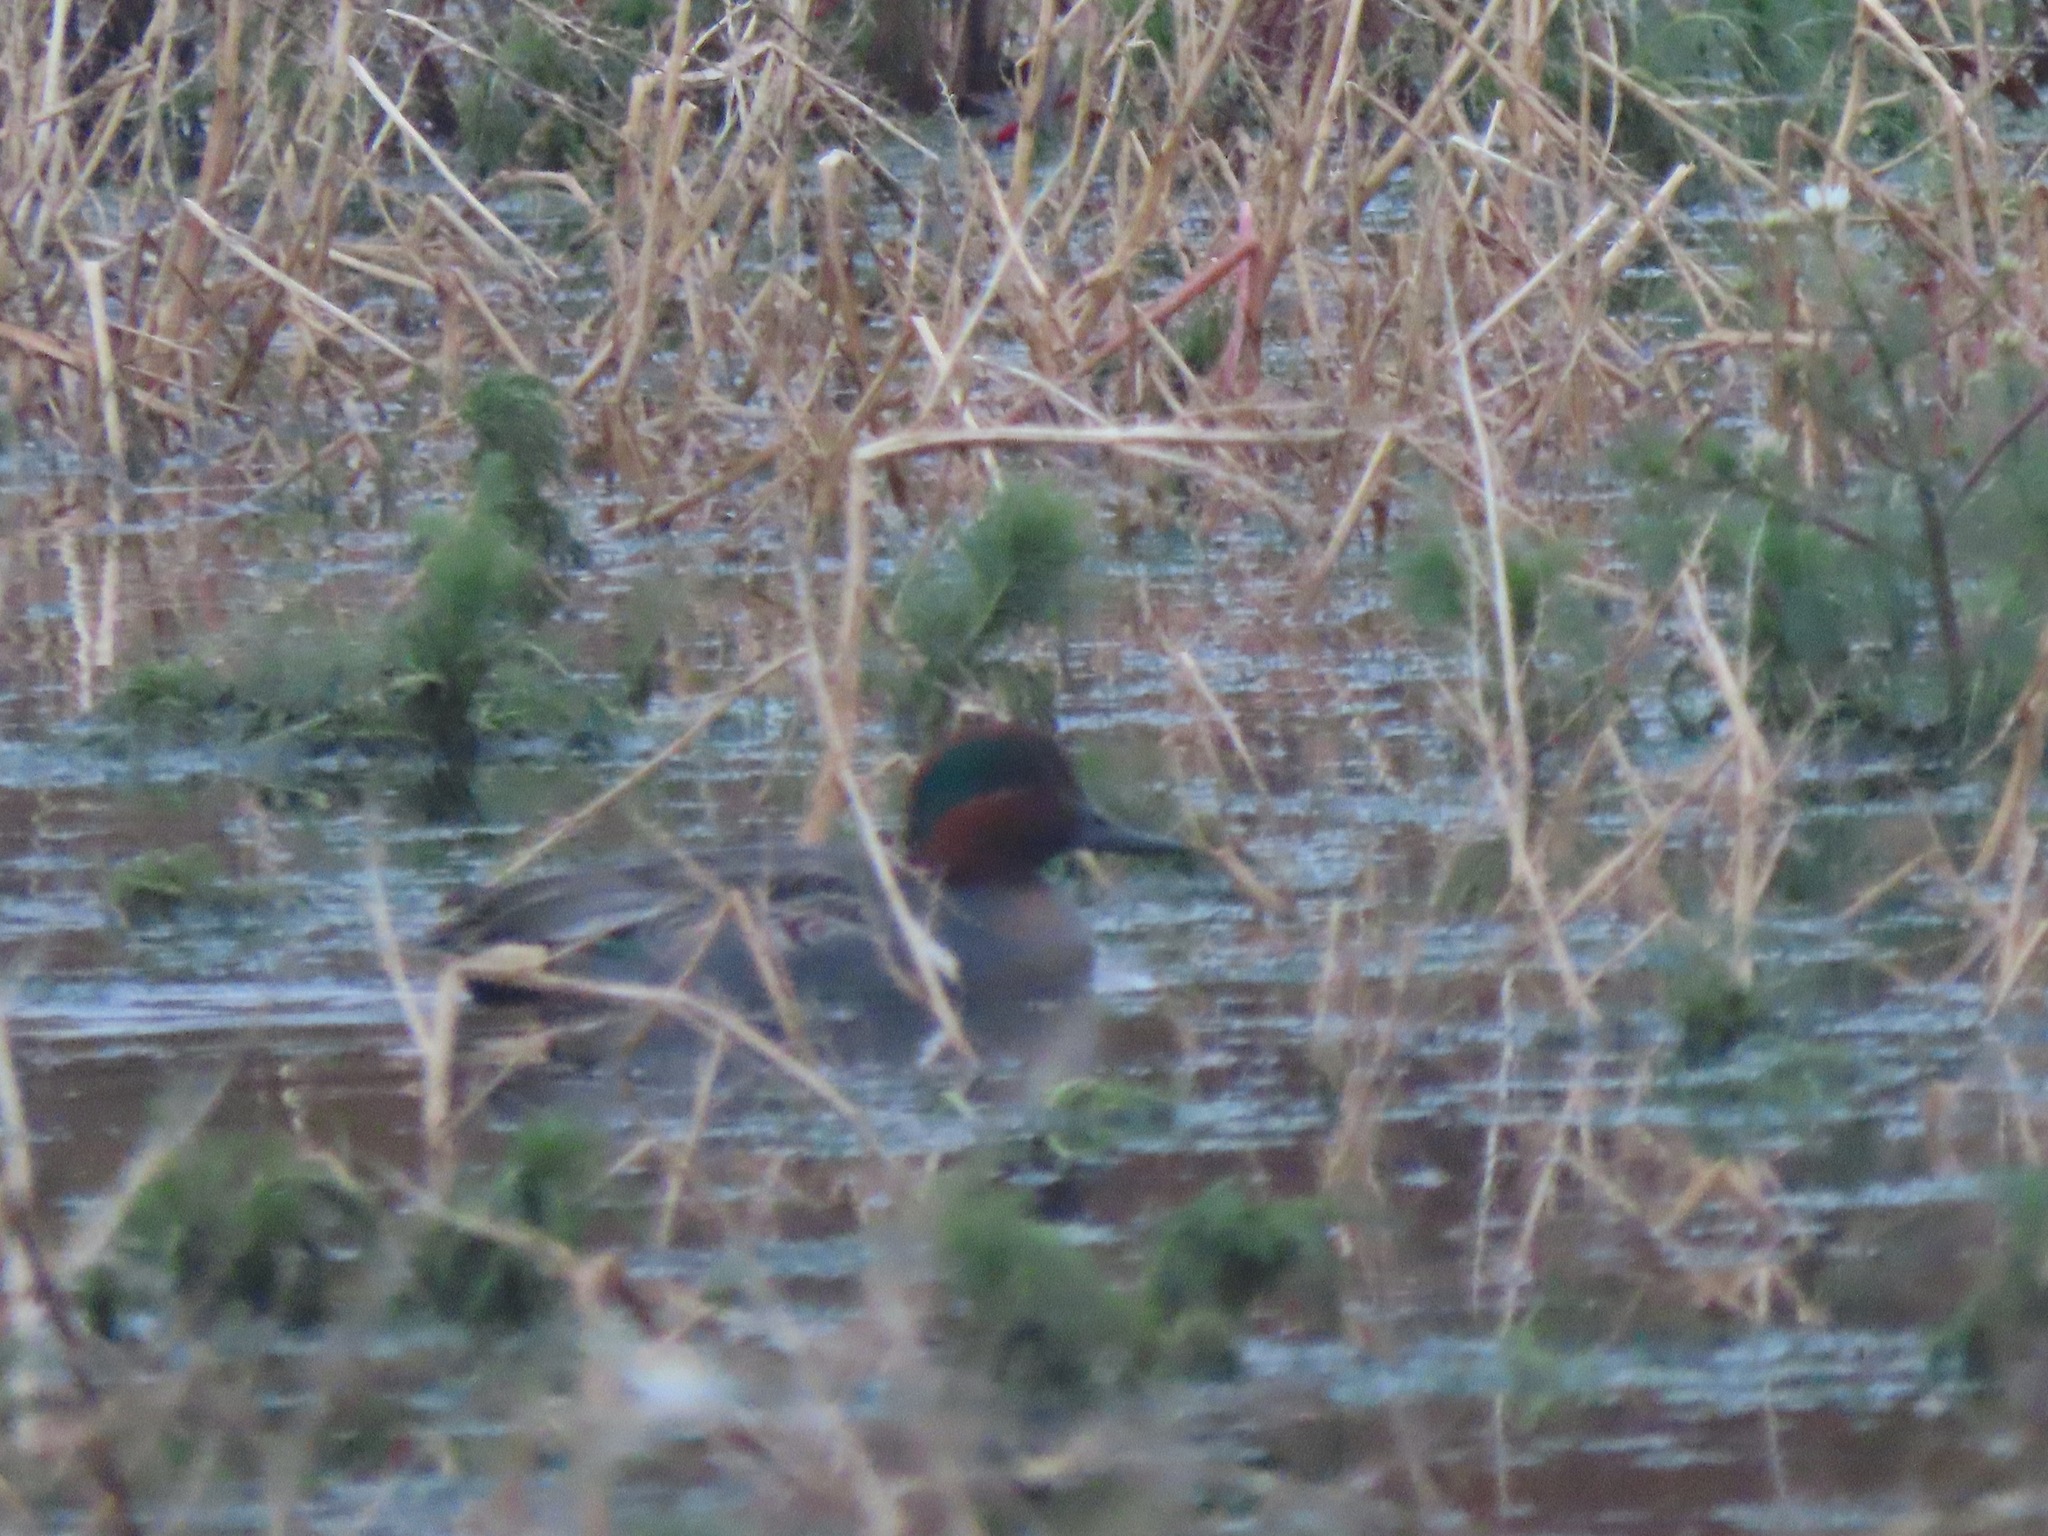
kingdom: Animalia
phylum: Chordata
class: Aves
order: Anseriformes
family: Anatidae
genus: Anas
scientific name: Anas crecca
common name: Eurasian teal
